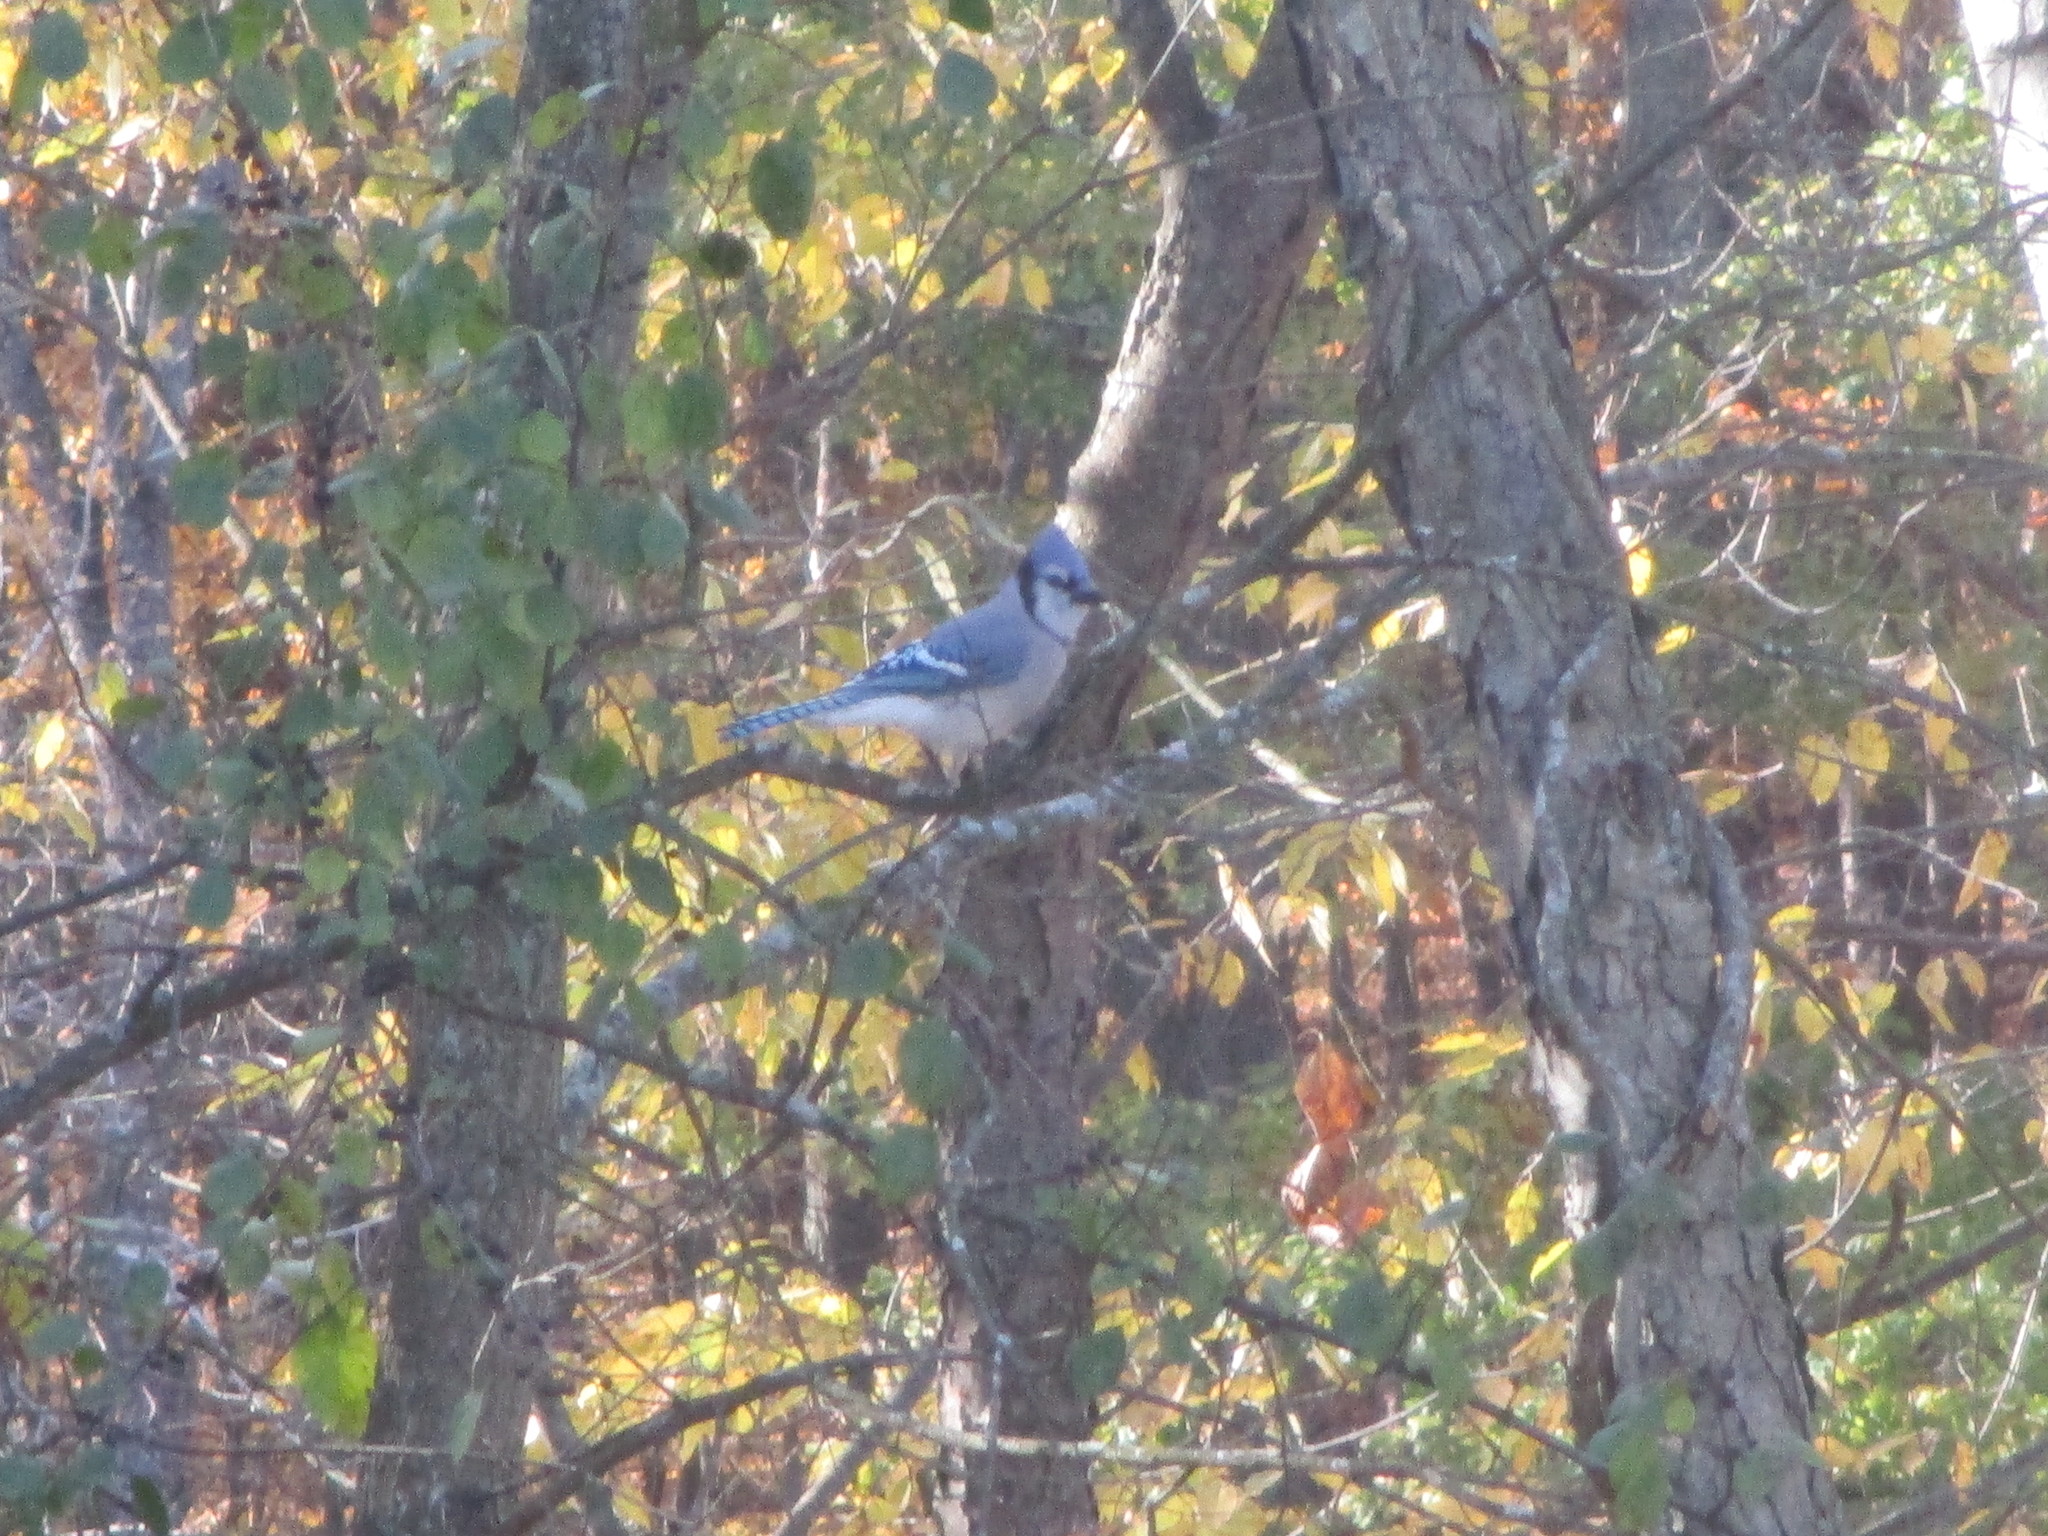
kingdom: Animalia
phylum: Chordata
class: Aves
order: Passeriformes
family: Corvidae
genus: Cyanocitta
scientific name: Cyanocitta cristata
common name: Blue jay
